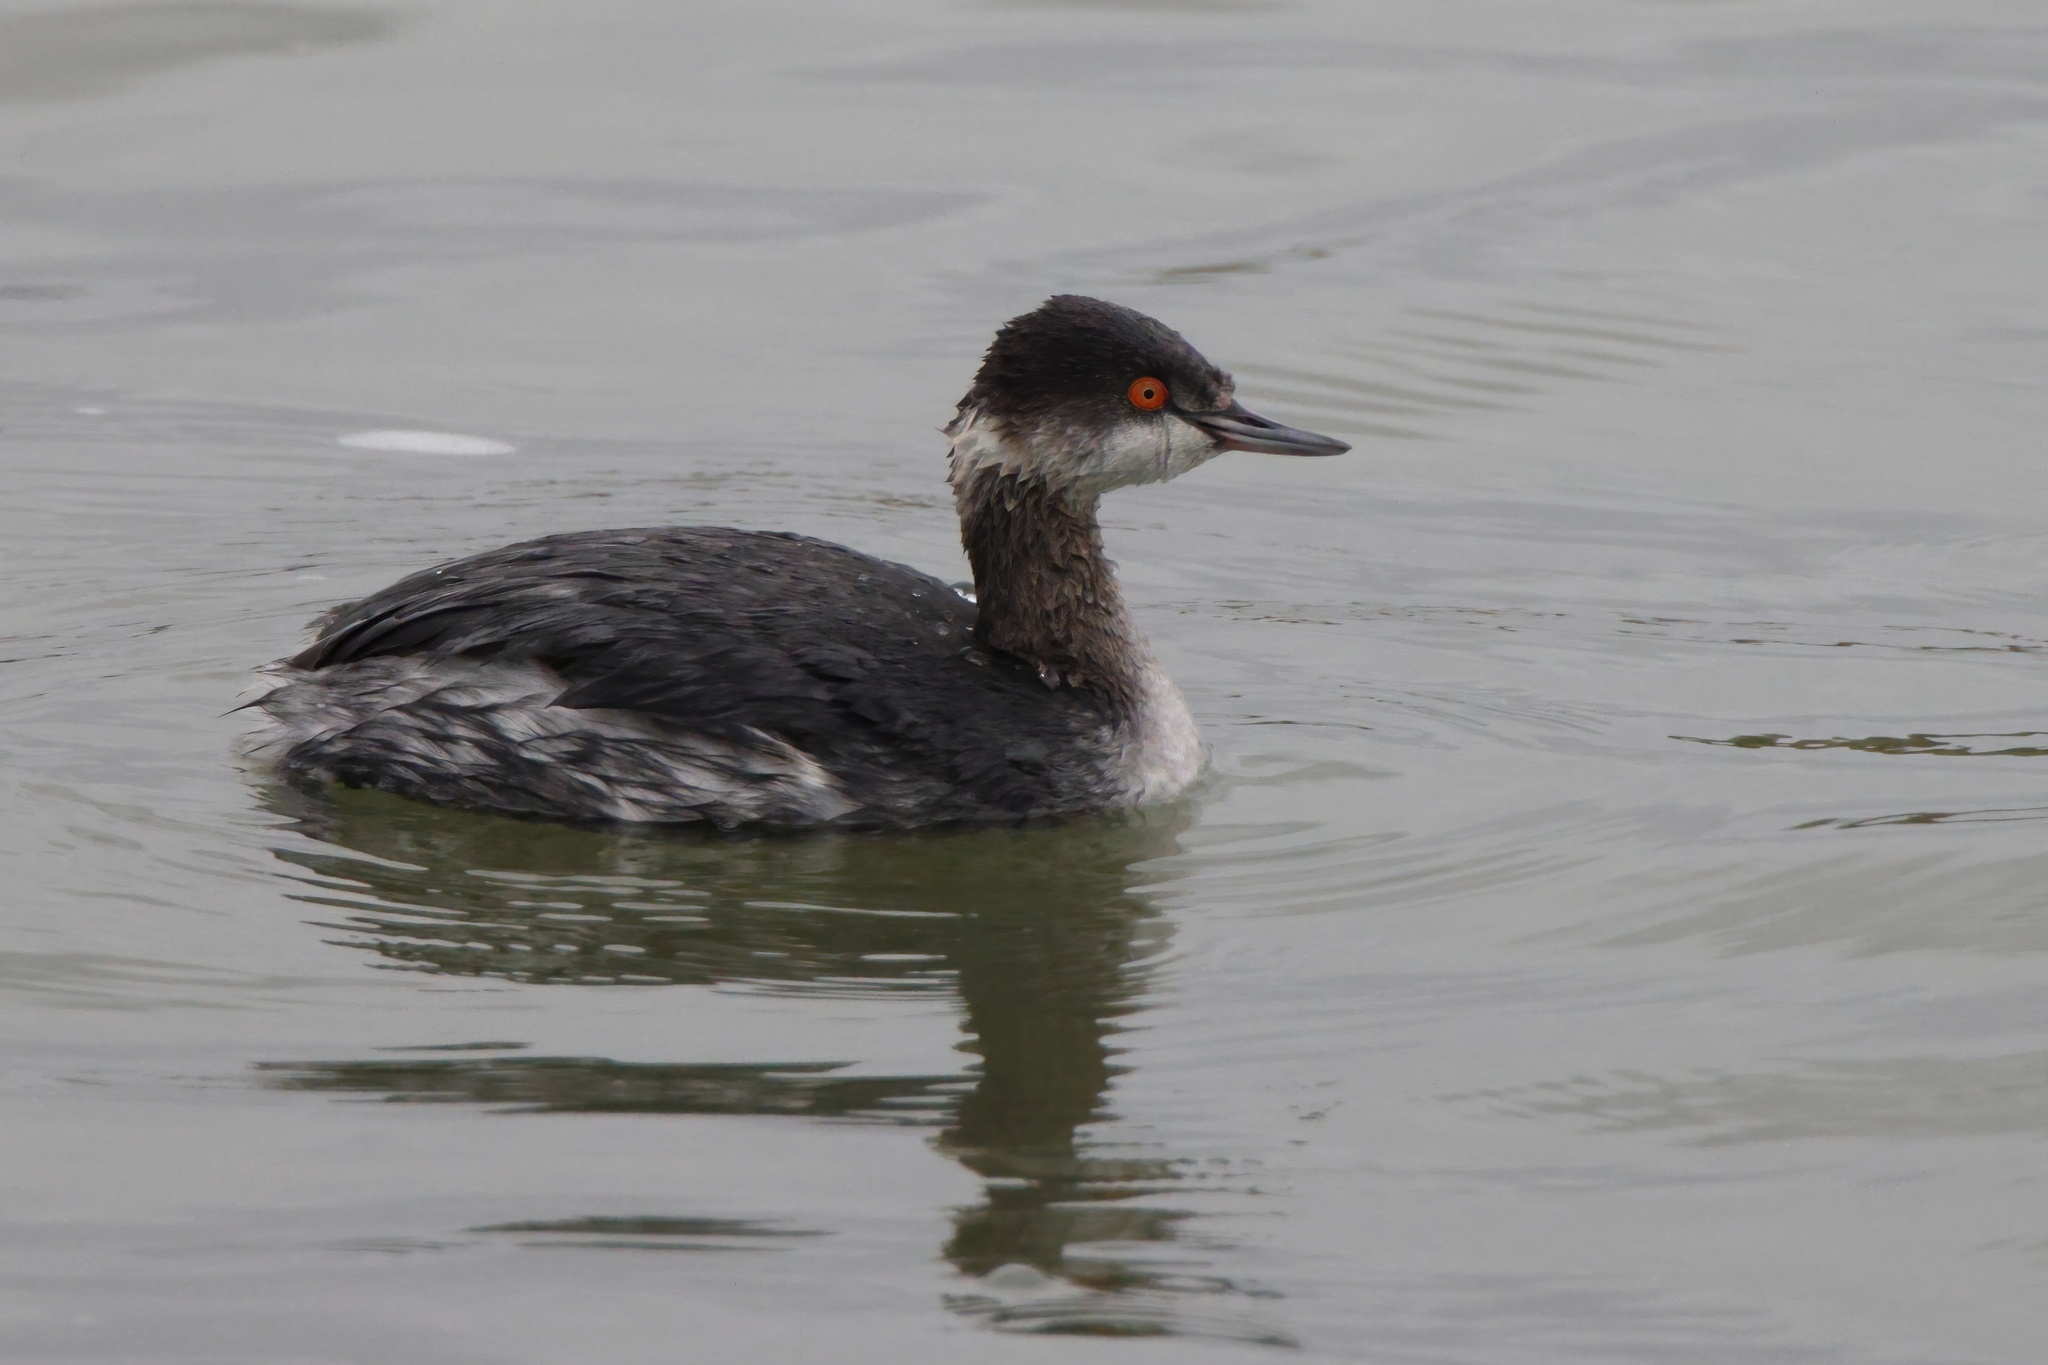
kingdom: Animalia
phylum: Chordata
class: Aves
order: Podicipediformes
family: Podicipedidae
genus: Podiceps
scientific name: Podiceps nigricollis
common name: Black-necked grebe
